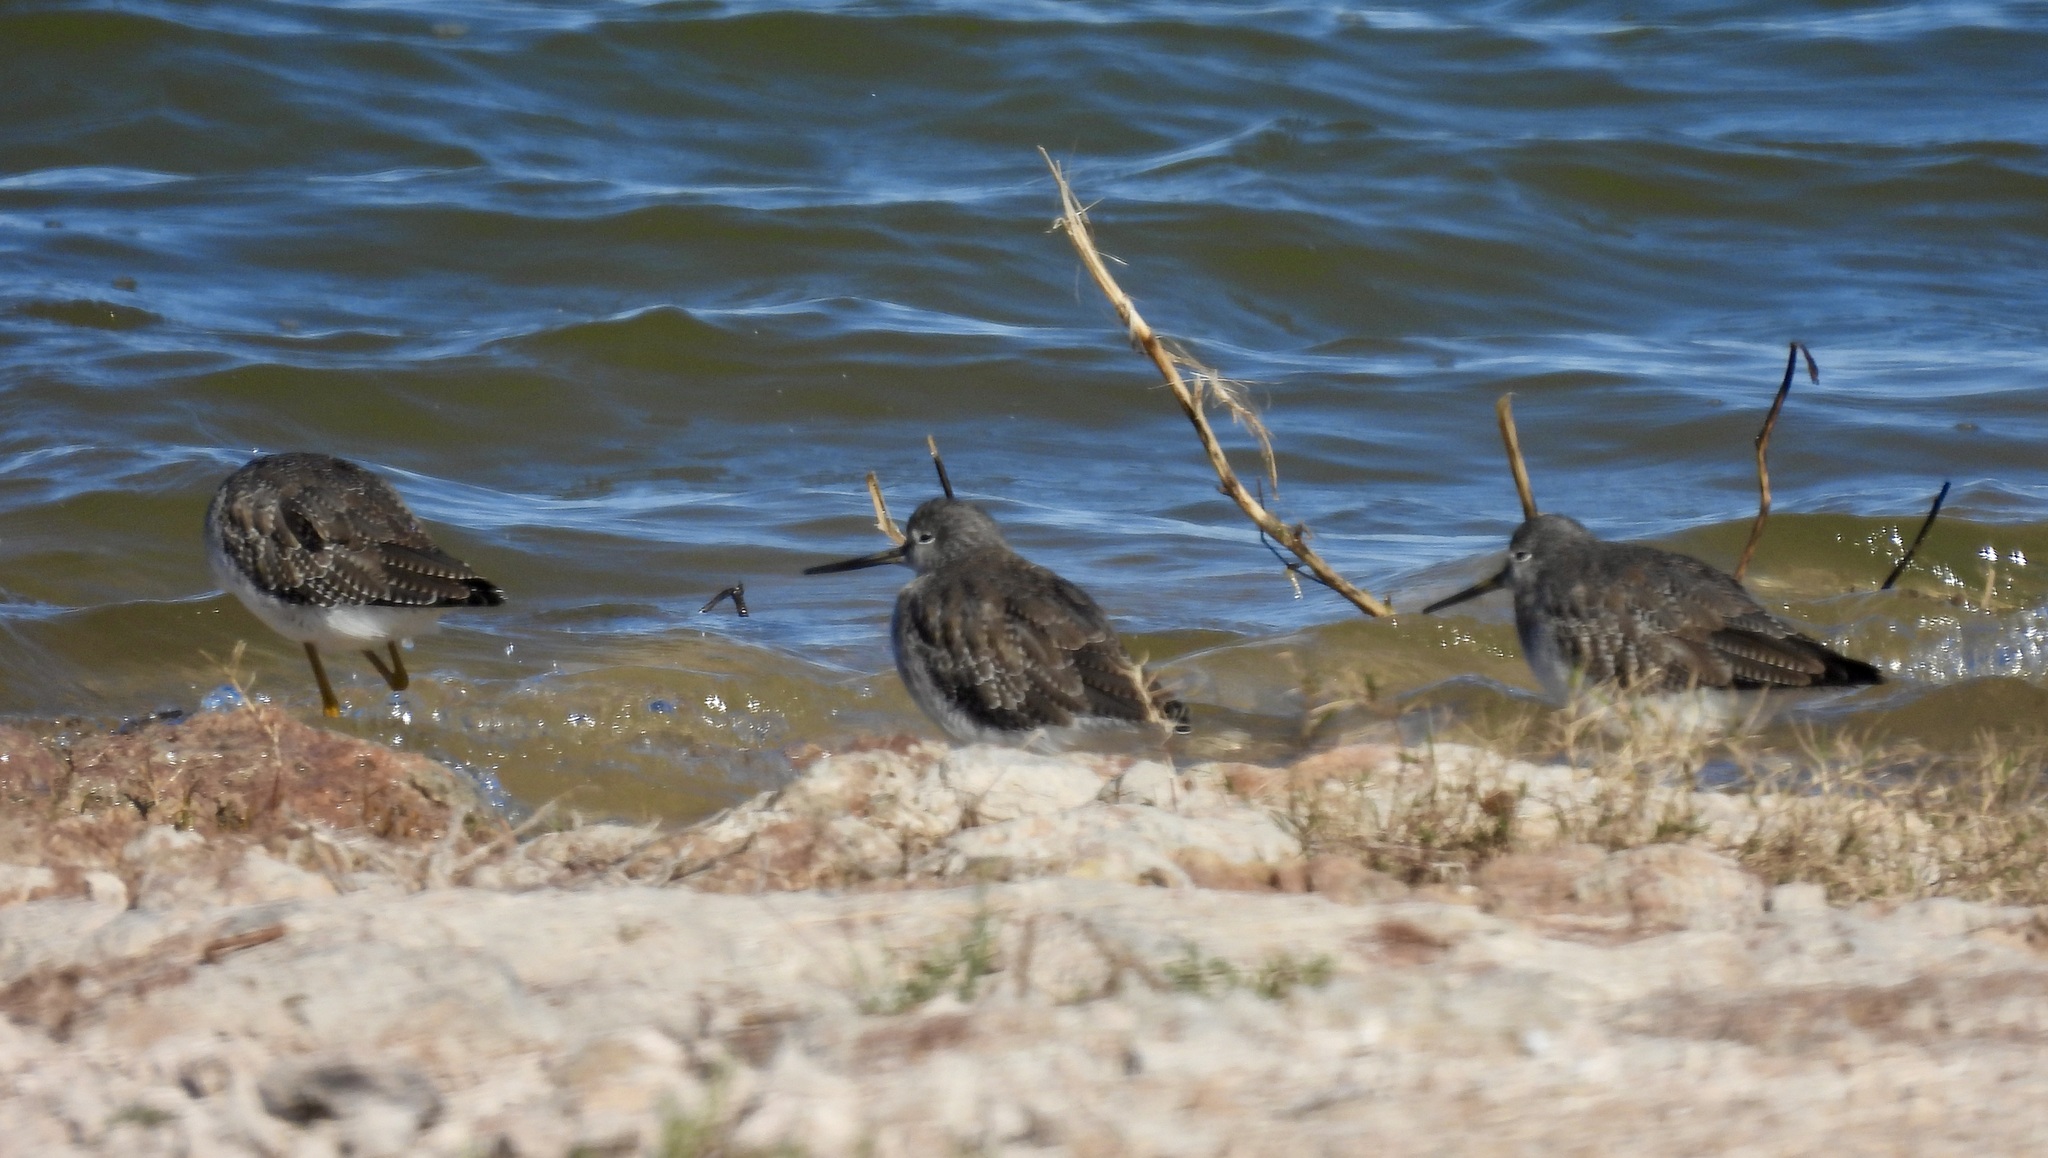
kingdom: Animalia
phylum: Chordata
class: Aves
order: Charadriiformes
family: Scolopacidae
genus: Tringa
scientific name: Tringa melanoleuca
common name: Greater yellowlegs
